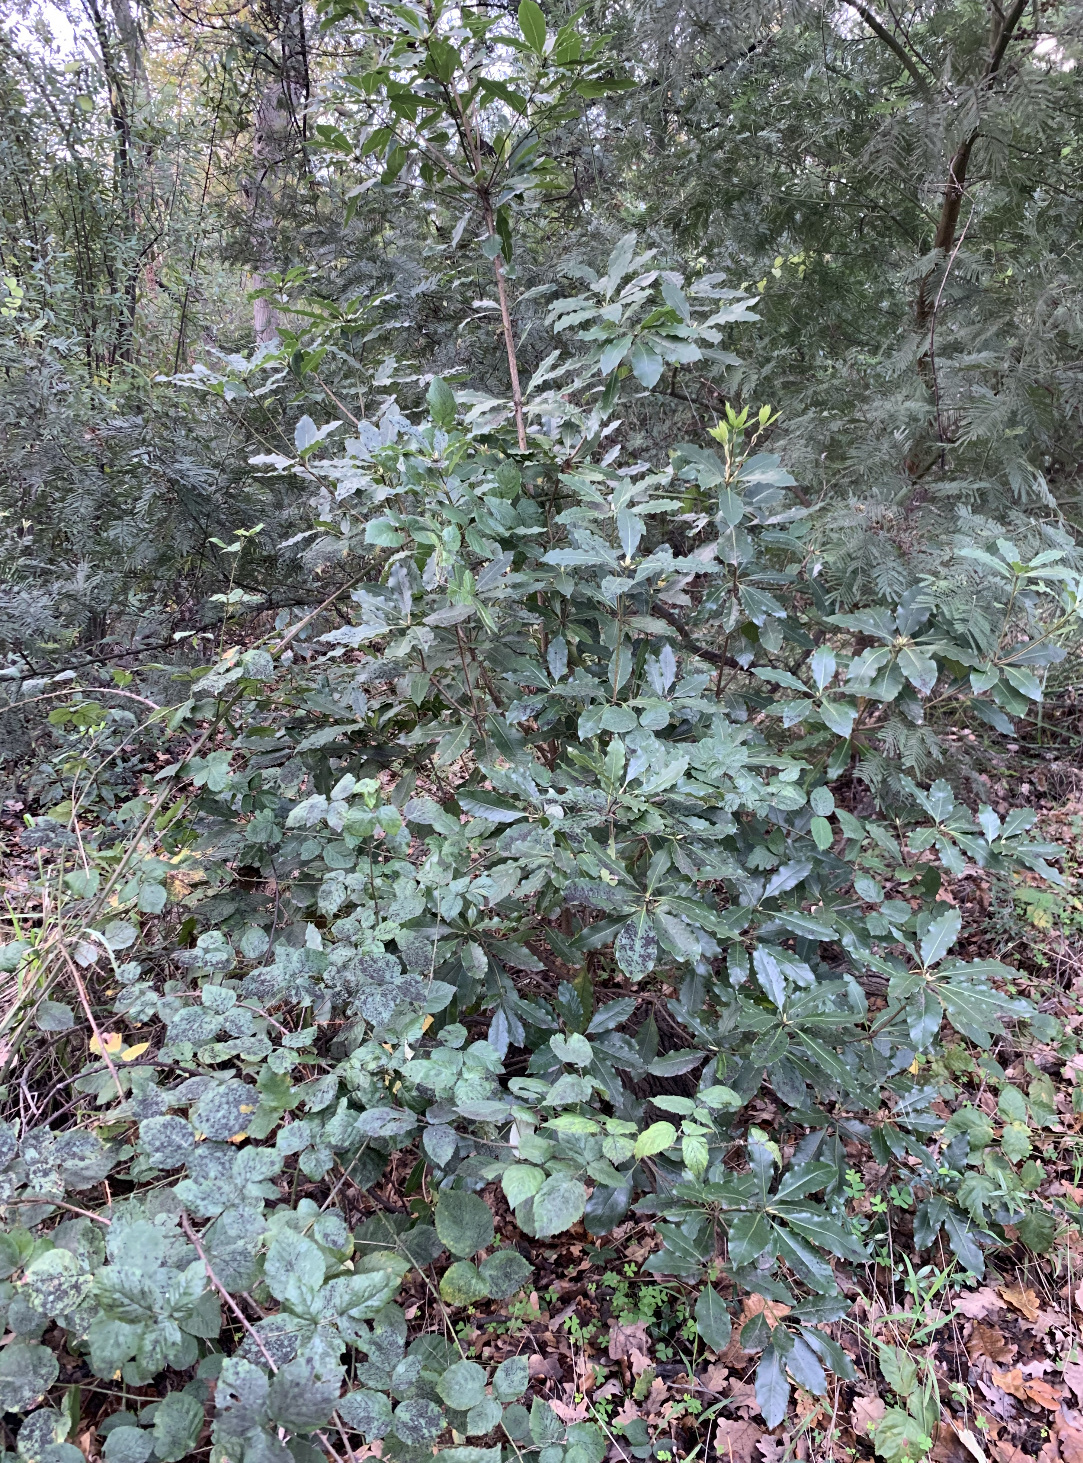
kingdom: Plantae
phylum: Tracheophyta
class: Magnoliopsida
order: Apiales
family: Pittosporaceae
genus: Pittosporum
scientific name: Pittosporum undulatum
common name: Australian cheesewood
